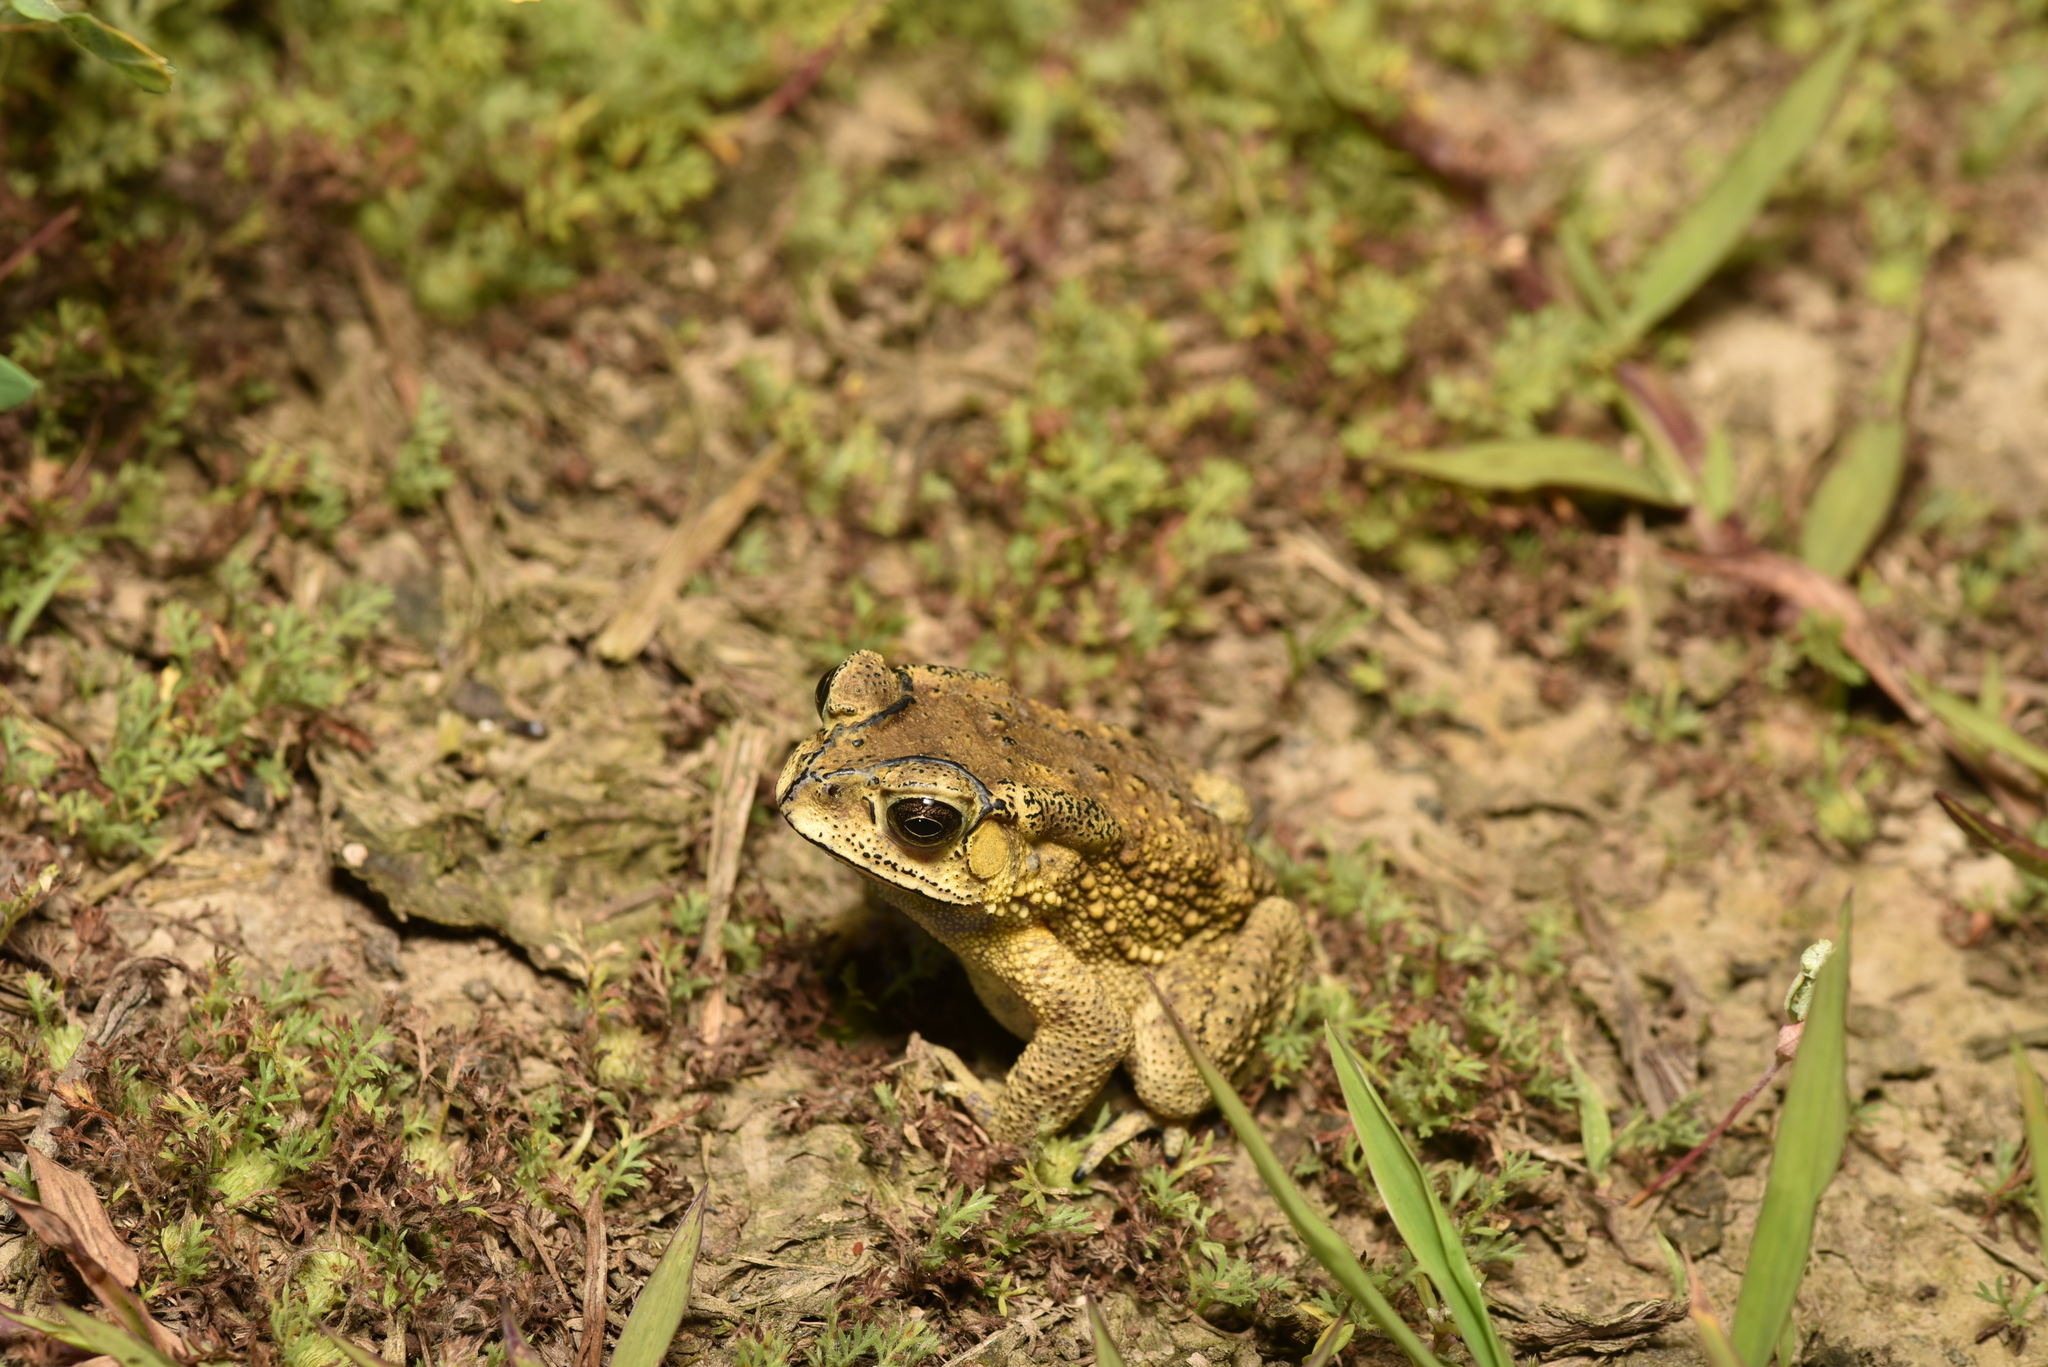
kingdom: Animalia
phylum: Chordata
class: Amphibia
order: Anura
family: Bufonidae
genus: Duttaphrynus
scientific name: Duttaphrynus melanostictus
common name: Common sunda toad
